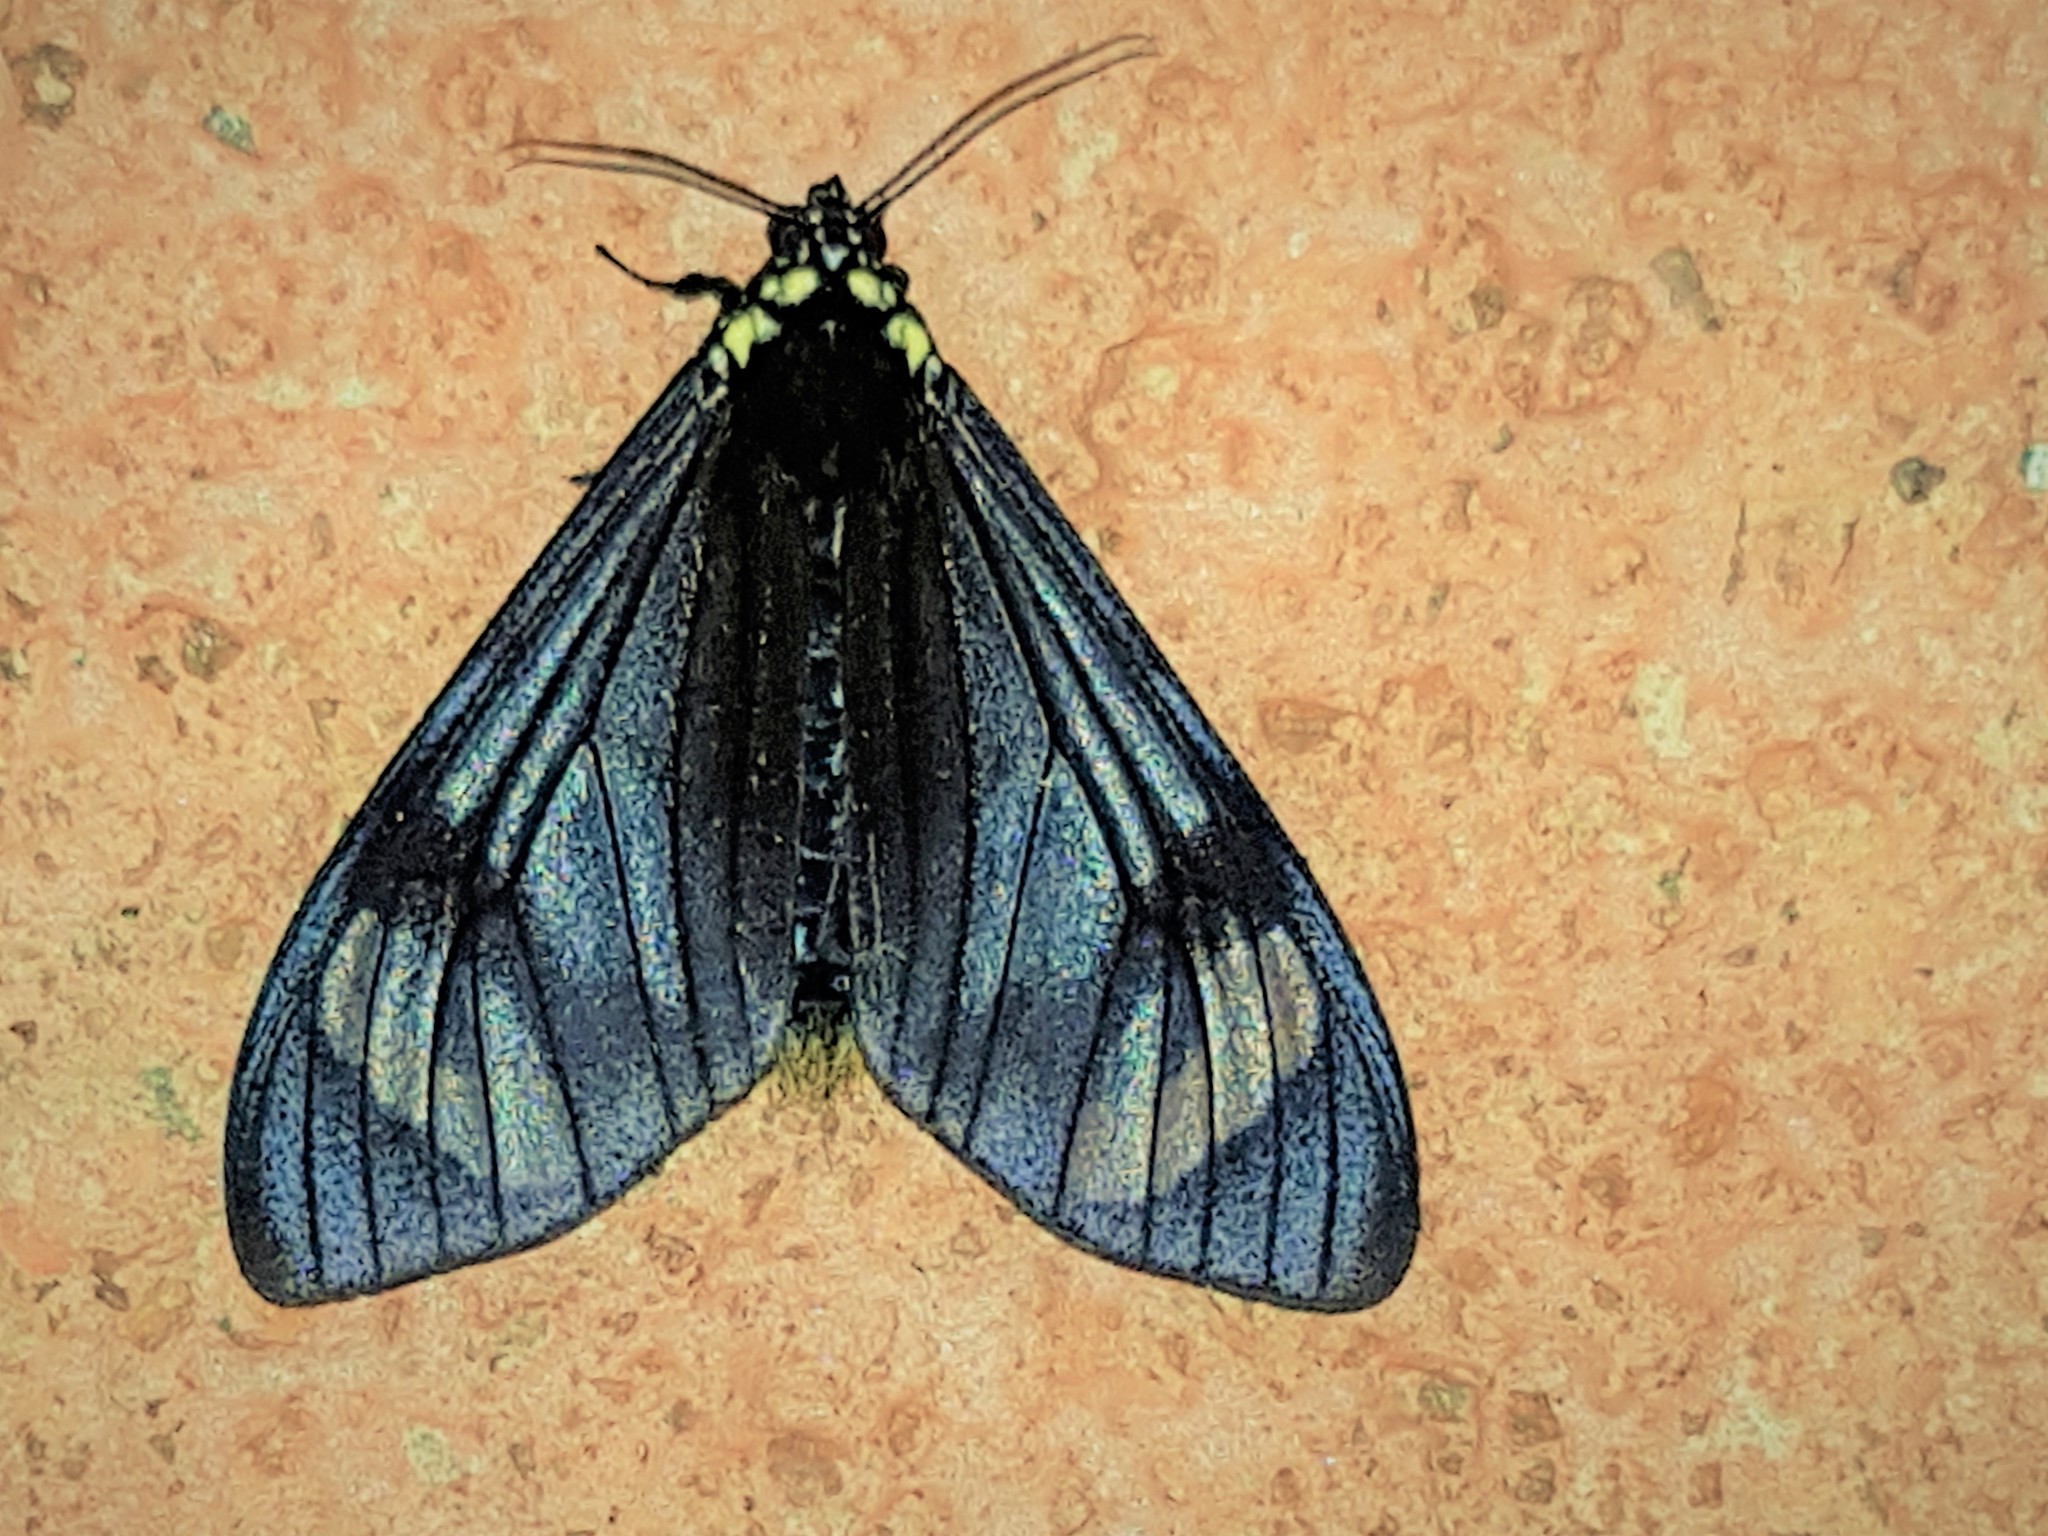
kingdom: Animalia
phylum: Arthropoda
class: Insecta
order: Lepidoptera
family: Erebidae
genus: Dysschema
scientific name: Dysschema tricolora
